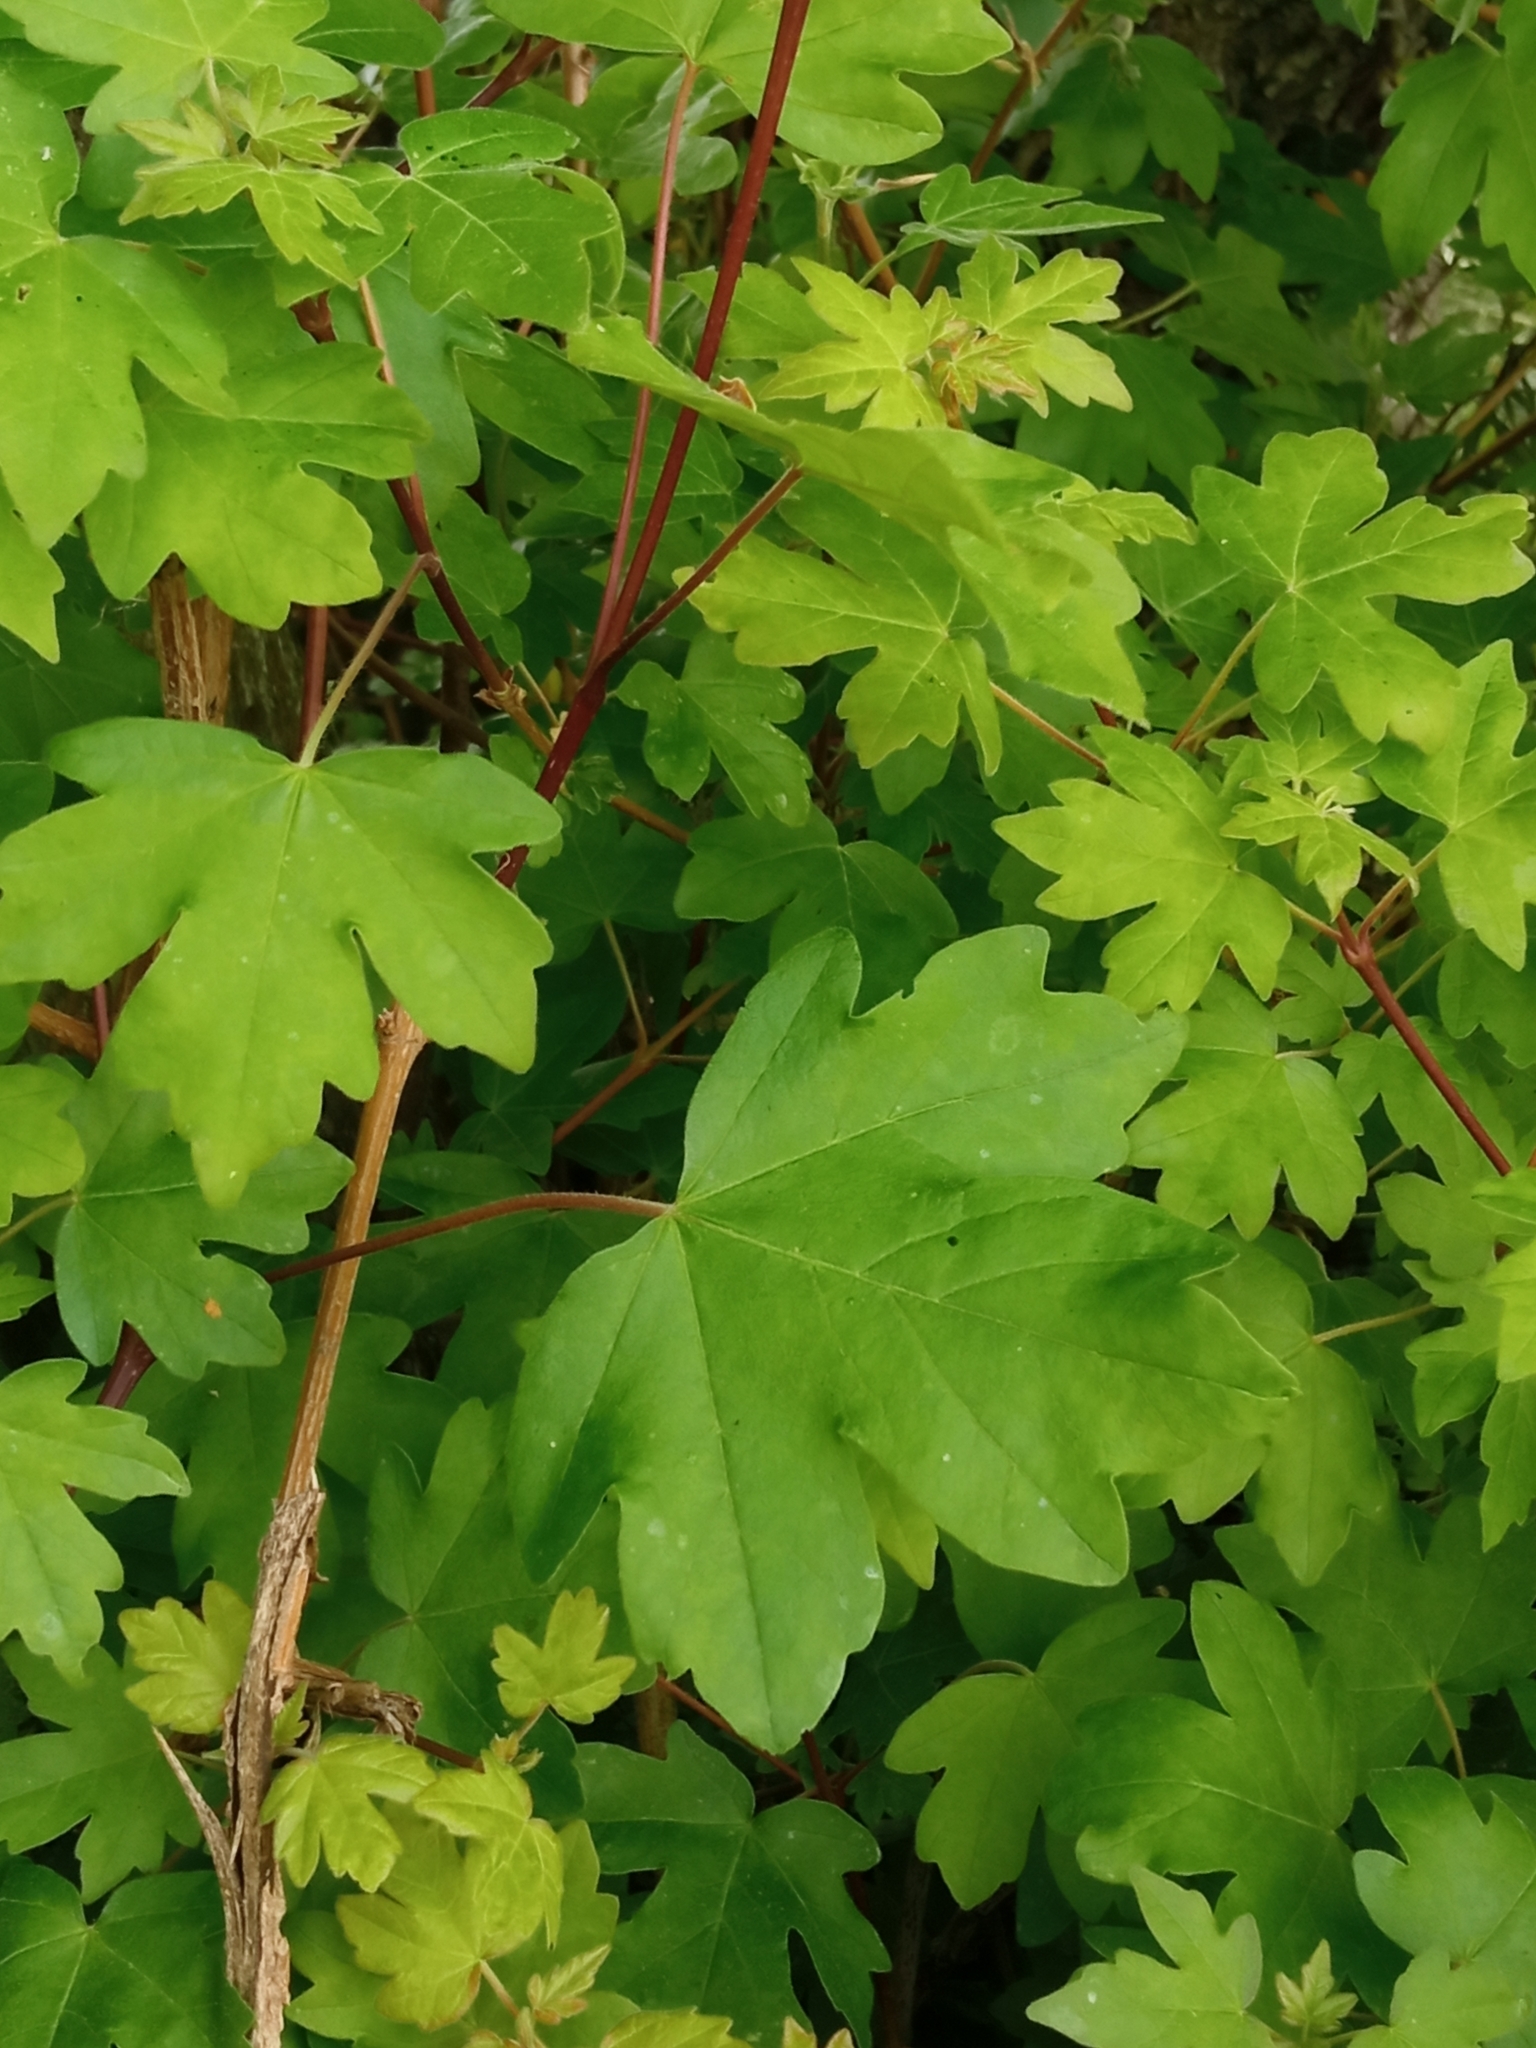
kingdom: Plantae
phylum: Tracheophyta
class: Magnoliopsida
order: Sapindales
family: Sapindaceae
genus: Acer
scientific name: Acer campestre
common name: Field maple
